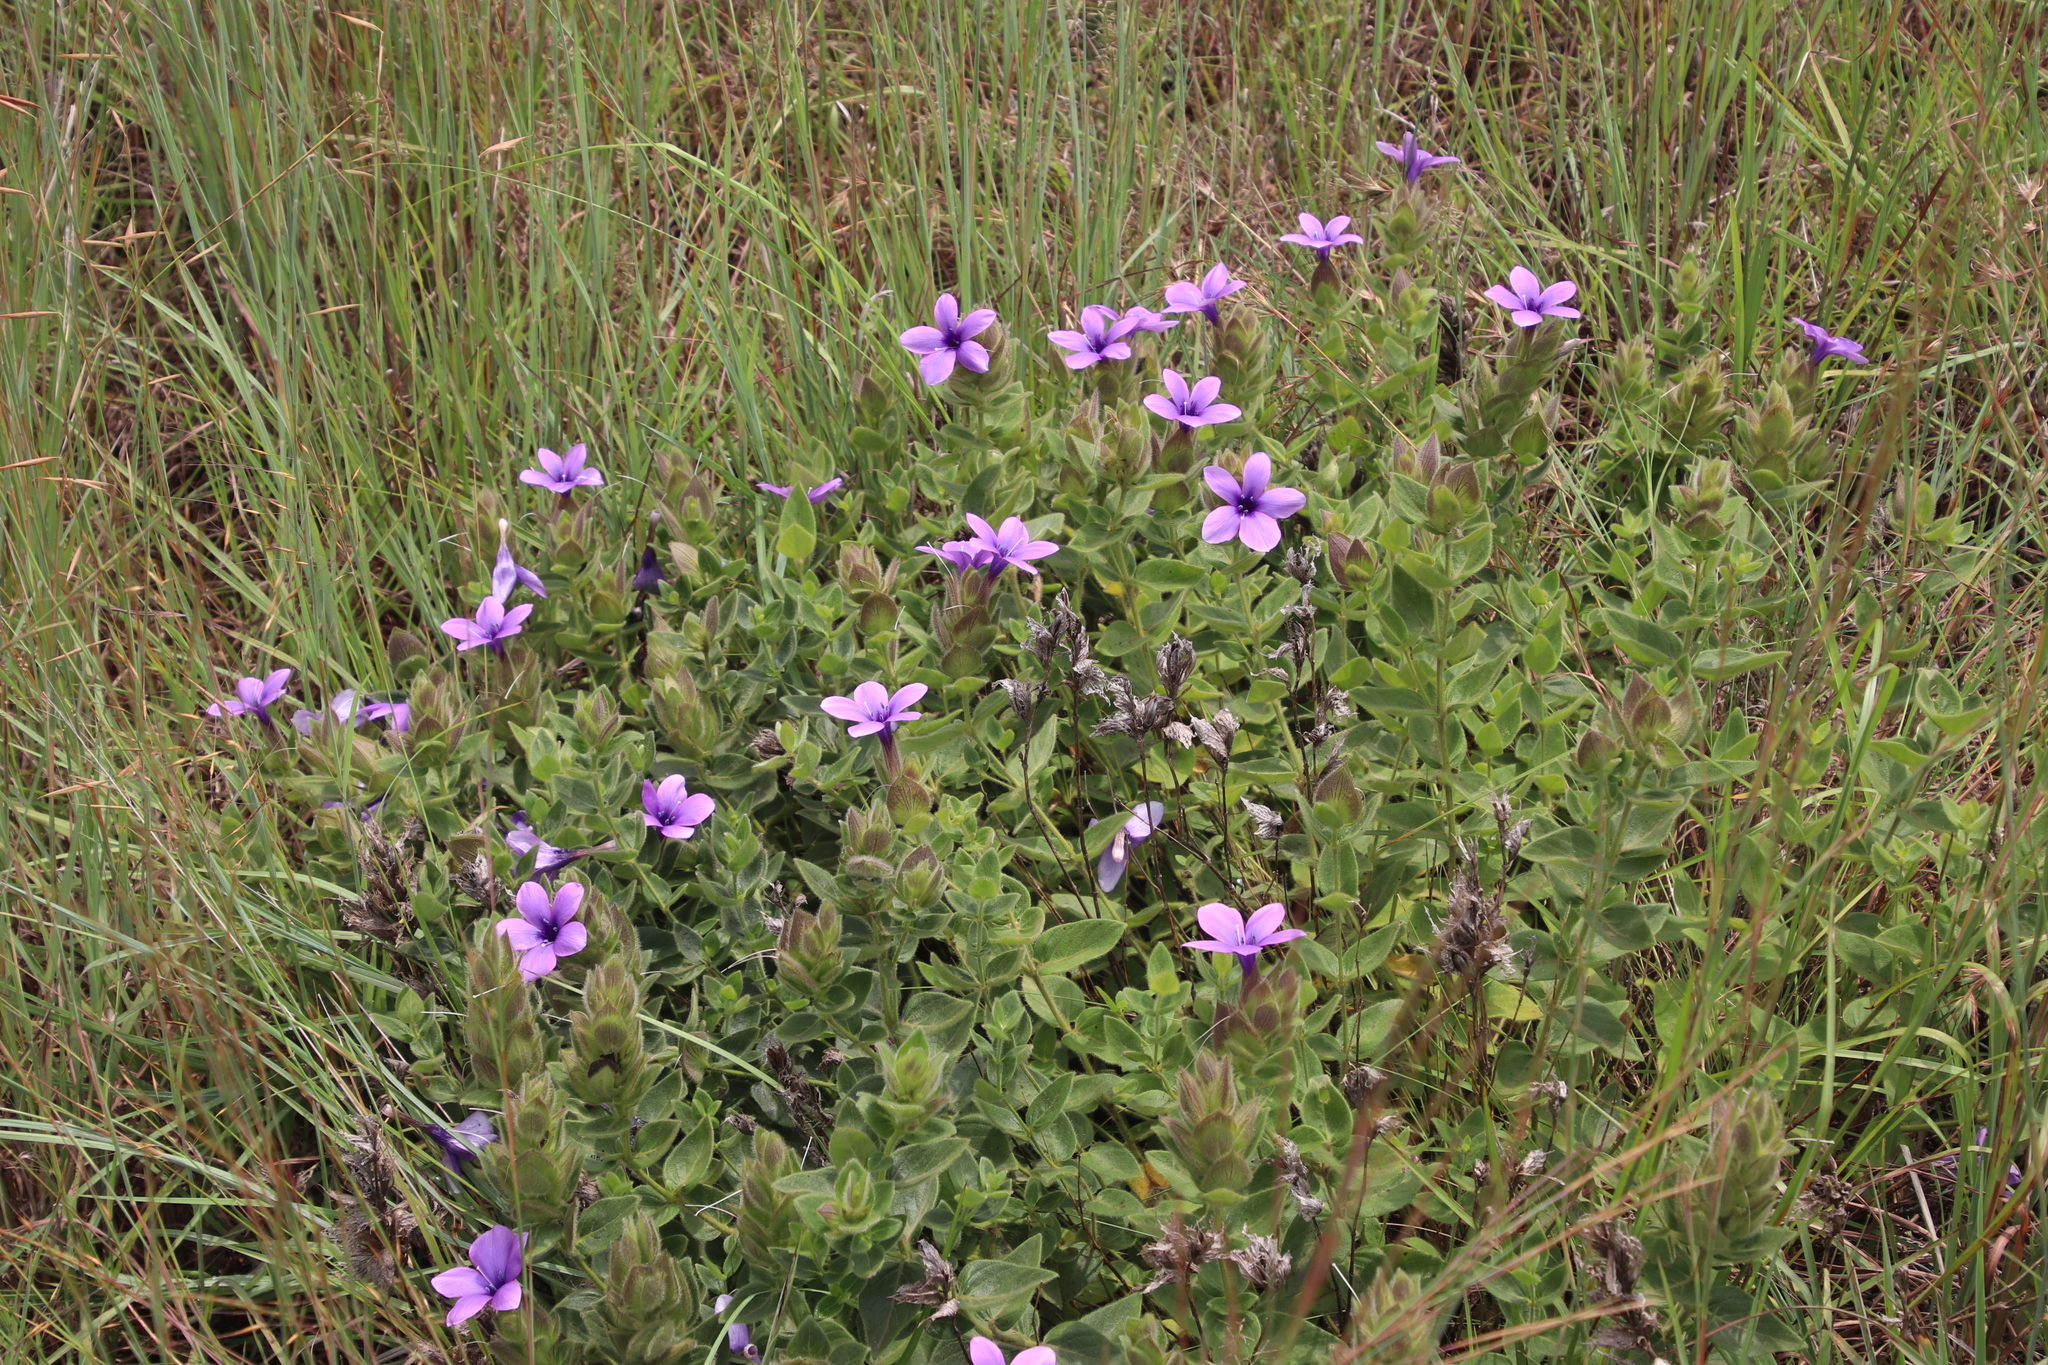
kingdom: Plantae
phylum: Tracheophyta
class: Magnoliopsida
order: Lamiales
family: Acanthaceae
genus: Barleria
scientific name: Barleria ovata
